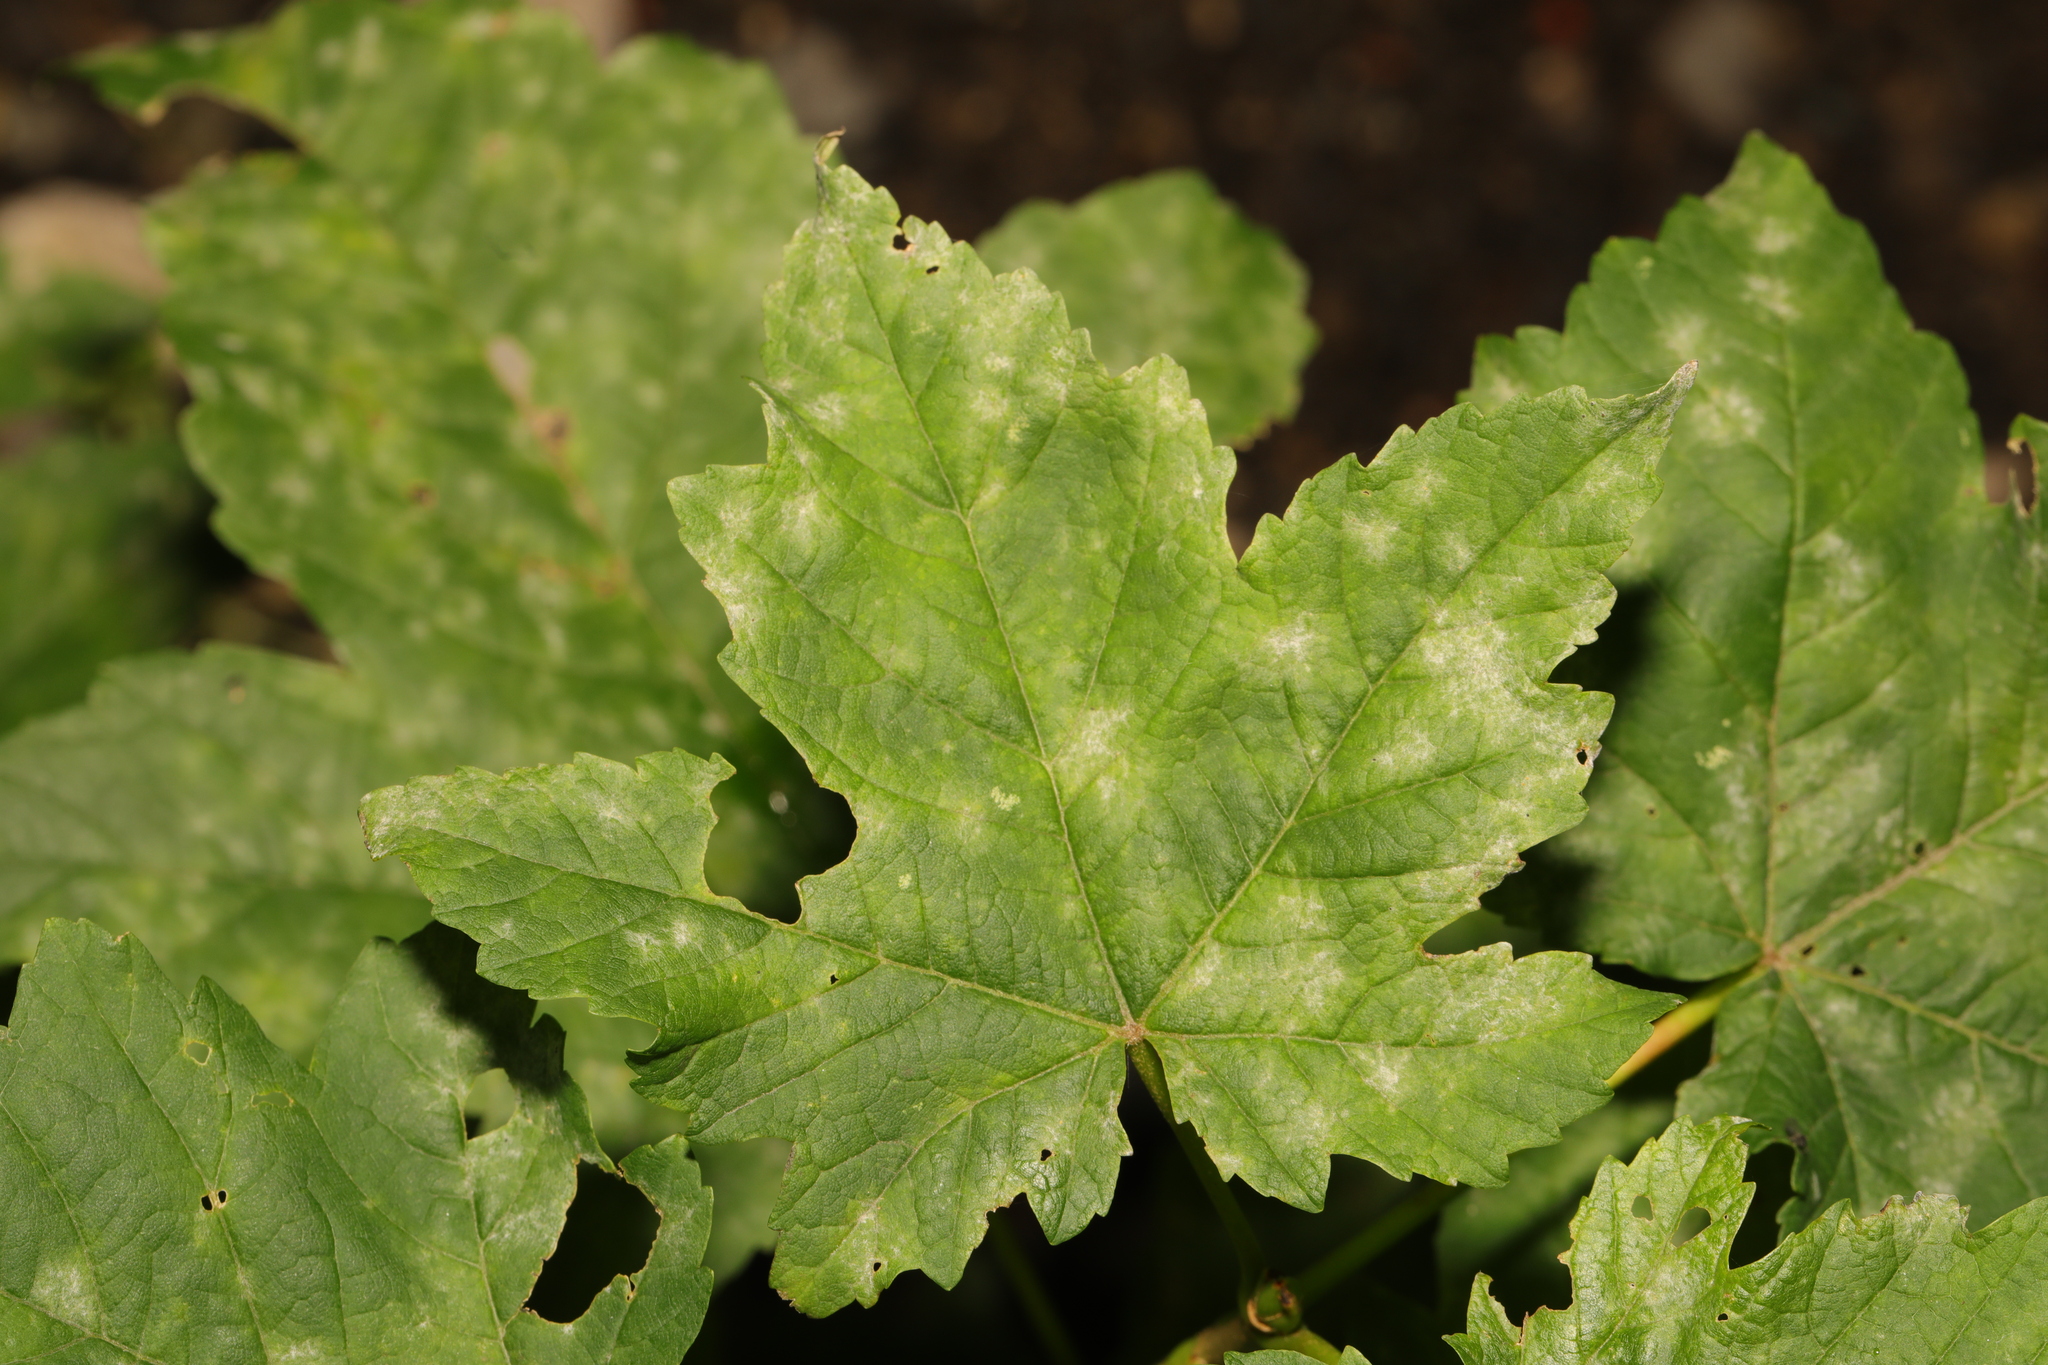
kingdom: Plantae
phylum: Tracheophyta
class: Magnoliopsida
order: Sapindales
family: Sapindaceae
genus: Acer
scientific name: Acer pseudoplatanus
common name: Sycamore
